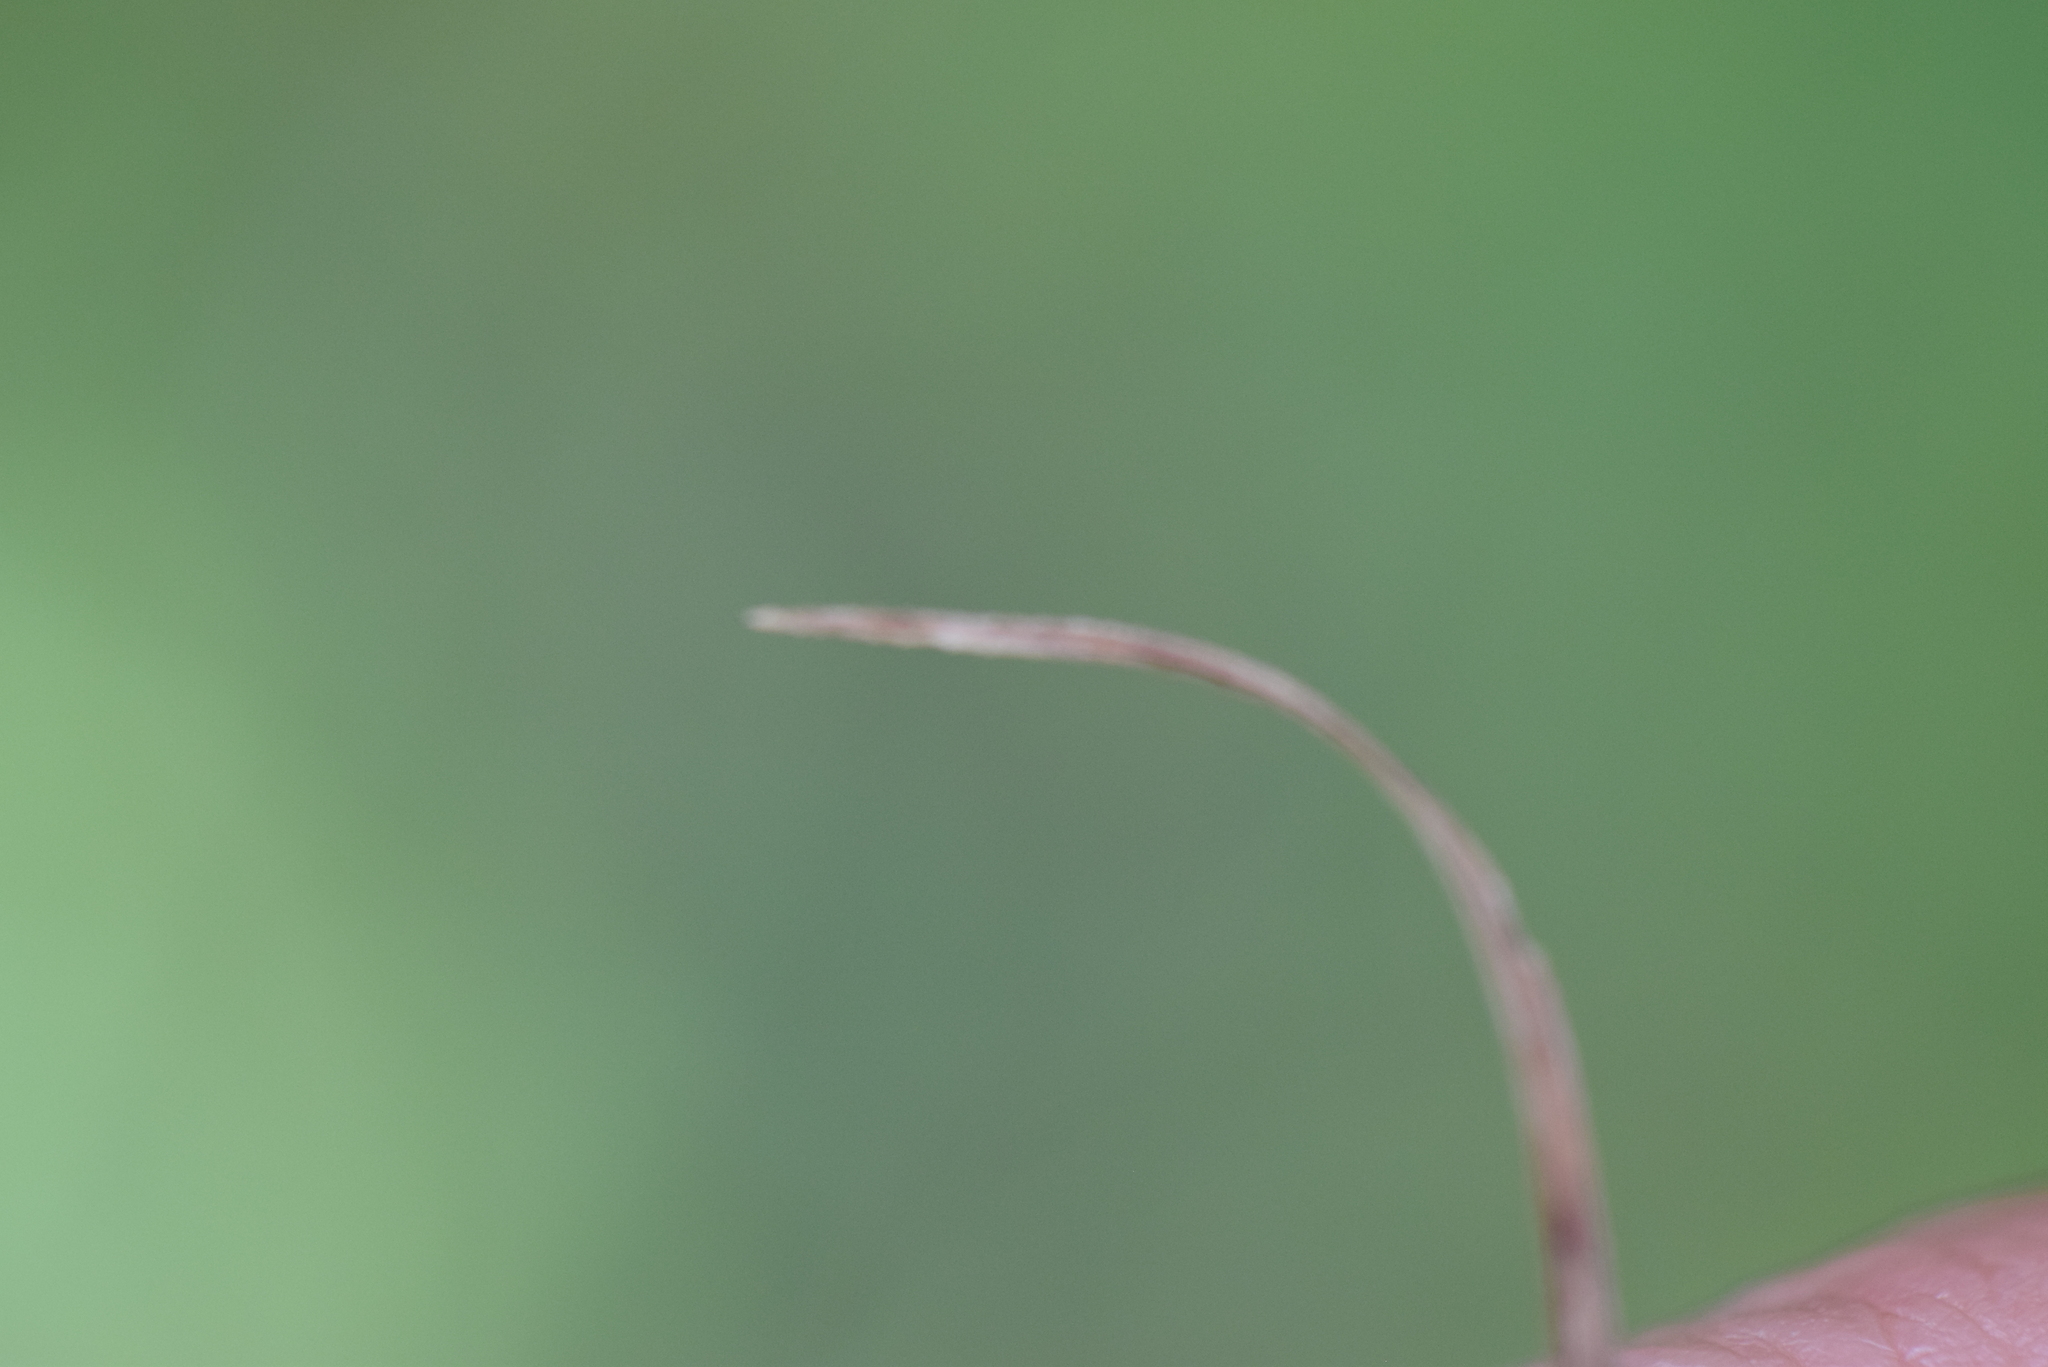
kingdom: Plantae
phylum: Tracheophyta
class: Liliopsida
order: Poales
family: Cyperaceae
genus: Carex
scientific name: Carex flacca
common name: Glaucous sedge
